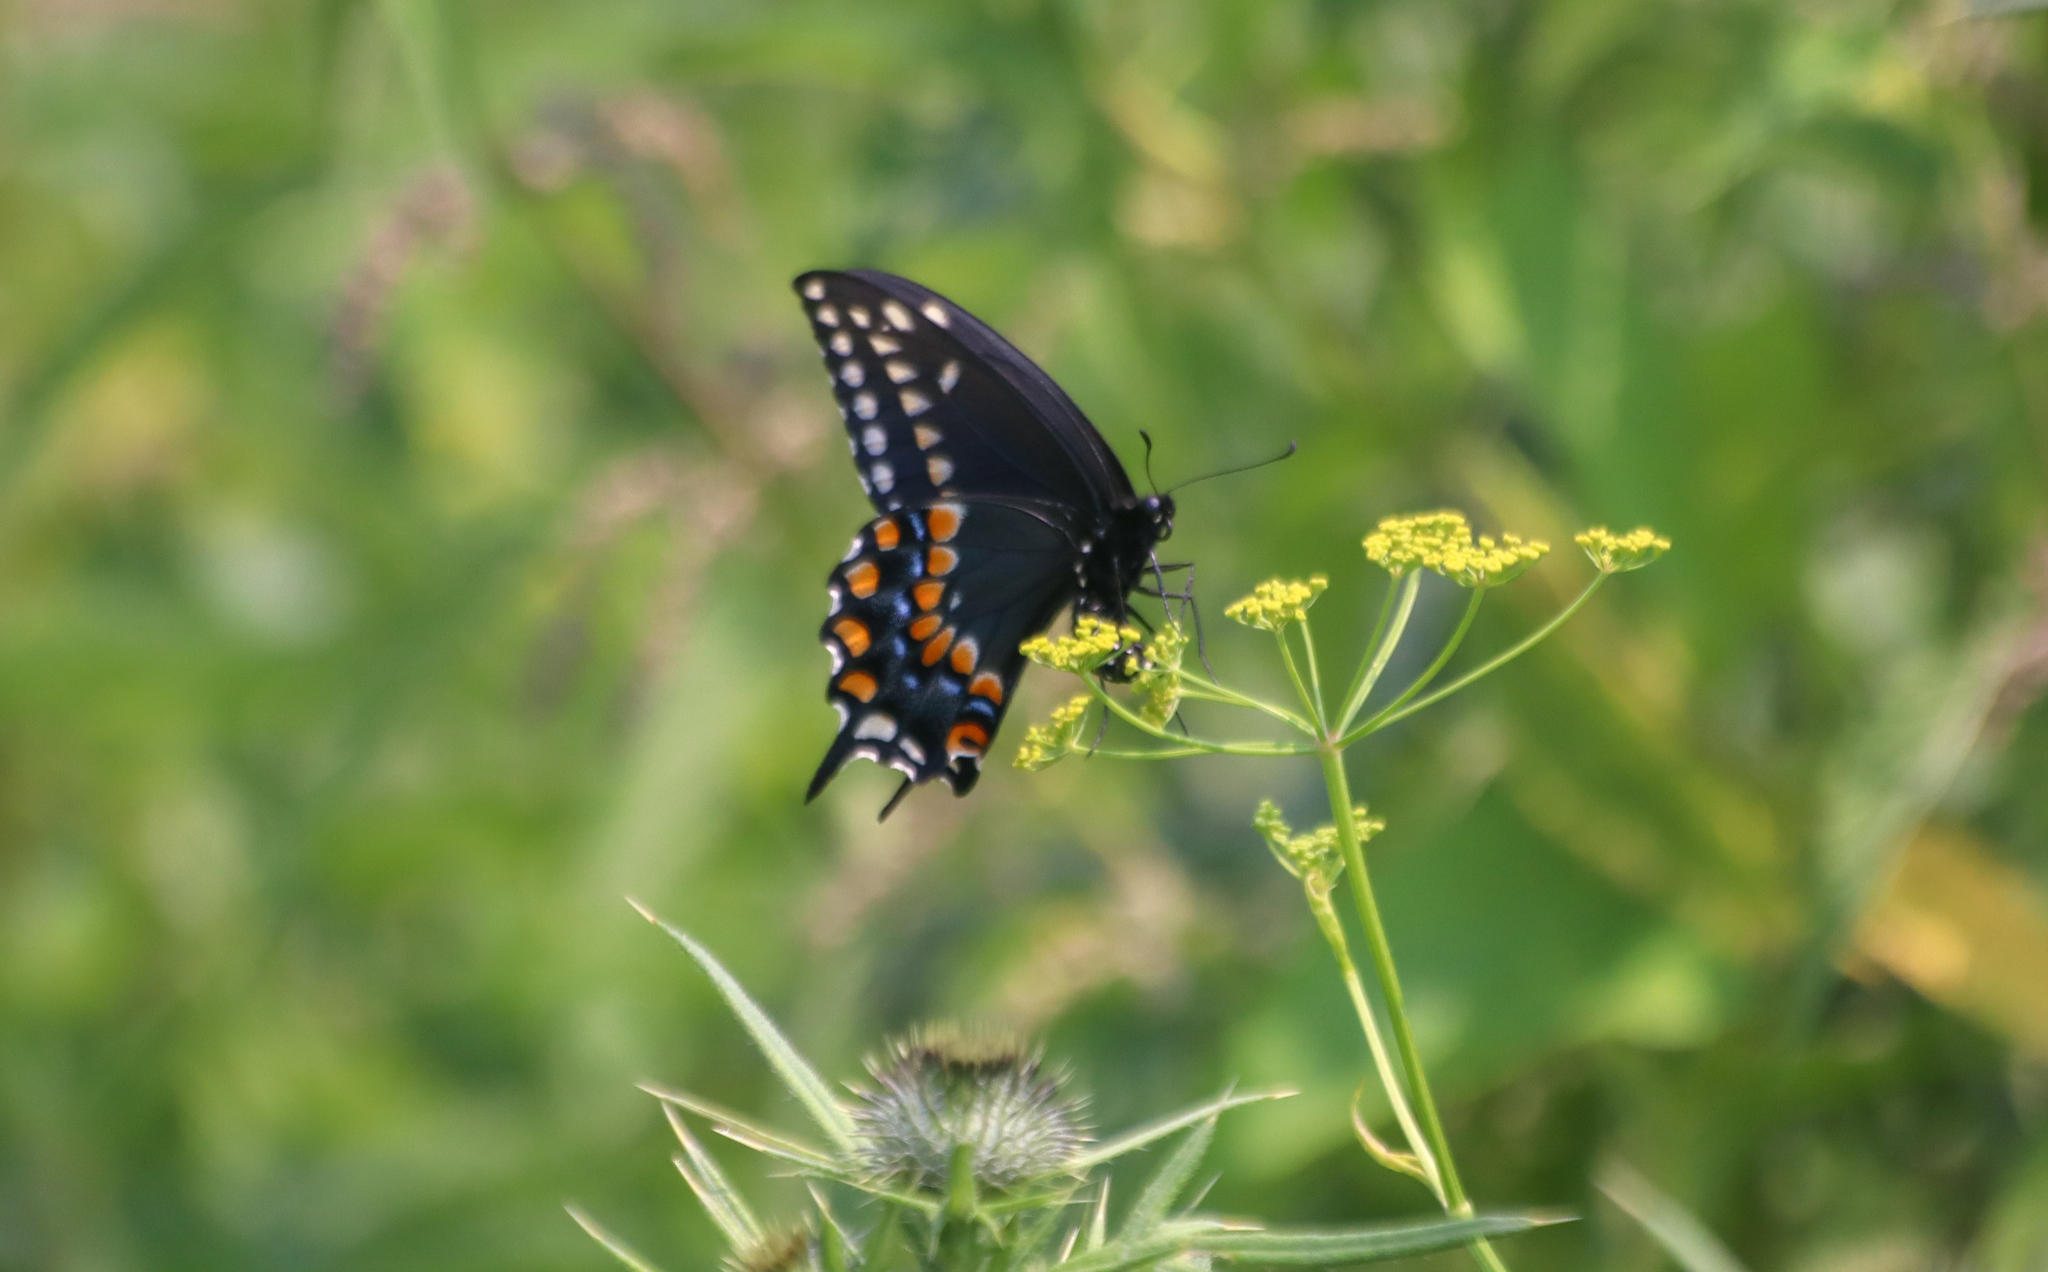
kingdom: Animalia
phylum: Arthropoda
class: Insecta
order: Lepidoptera
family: Papilionidae
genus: Papilio
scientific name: Papilio polyxenes
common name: Black swallowtail
